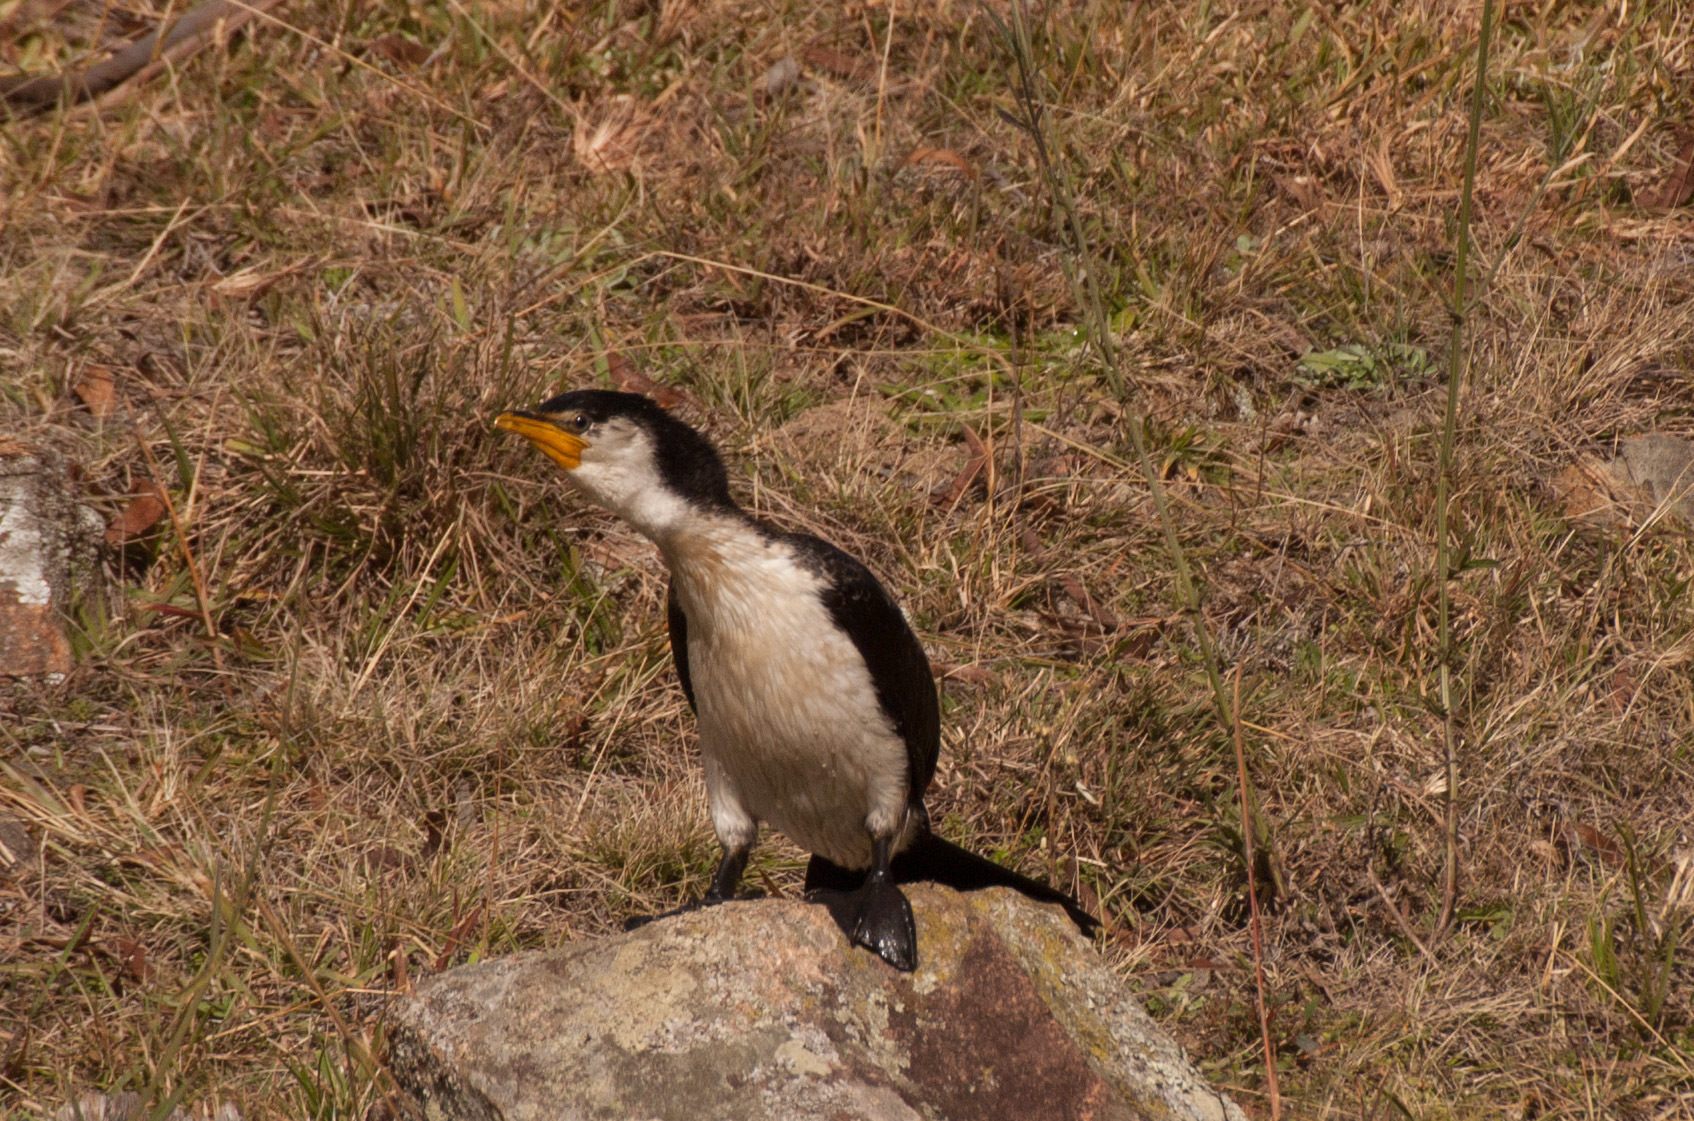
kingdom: Animalia
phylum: Chordata
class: Aves
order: Suliformes
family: Phalacrocoracidae
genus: Microcarbo
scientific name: Microcarbo melanoleucos
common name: Little pied cormorant
